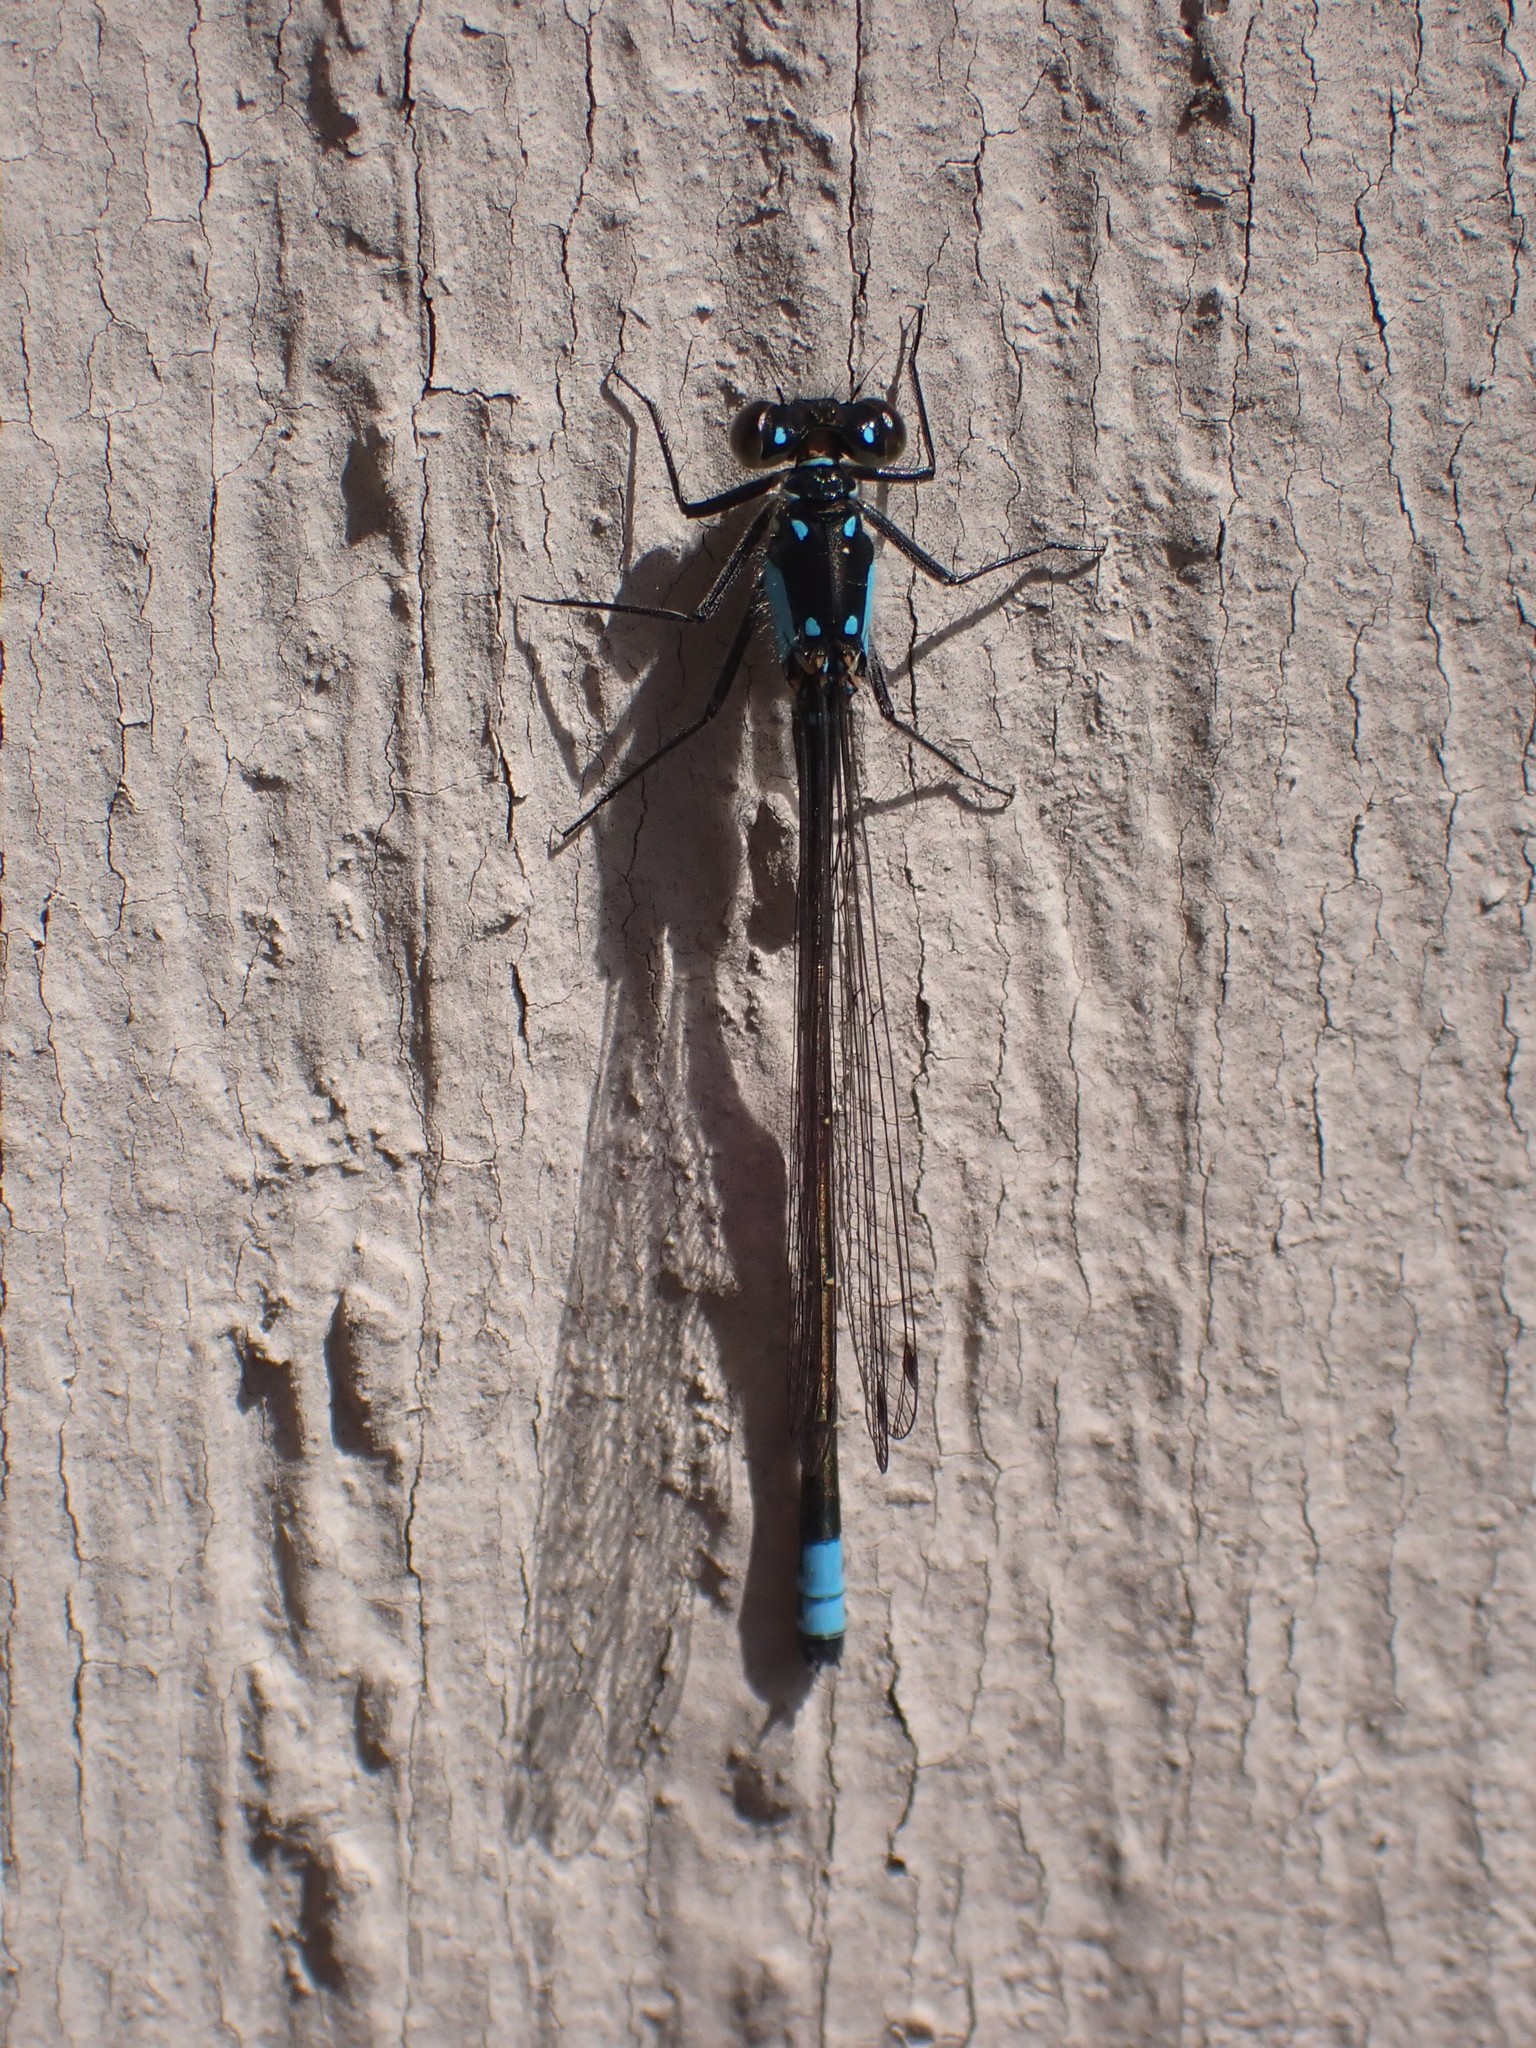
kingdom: Animalia
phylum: Arthropoda
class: Insecta
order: Odonata
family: Coenagrionidae
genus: Ischnura
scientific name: Ischnura cervula
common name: Pacific forktail
